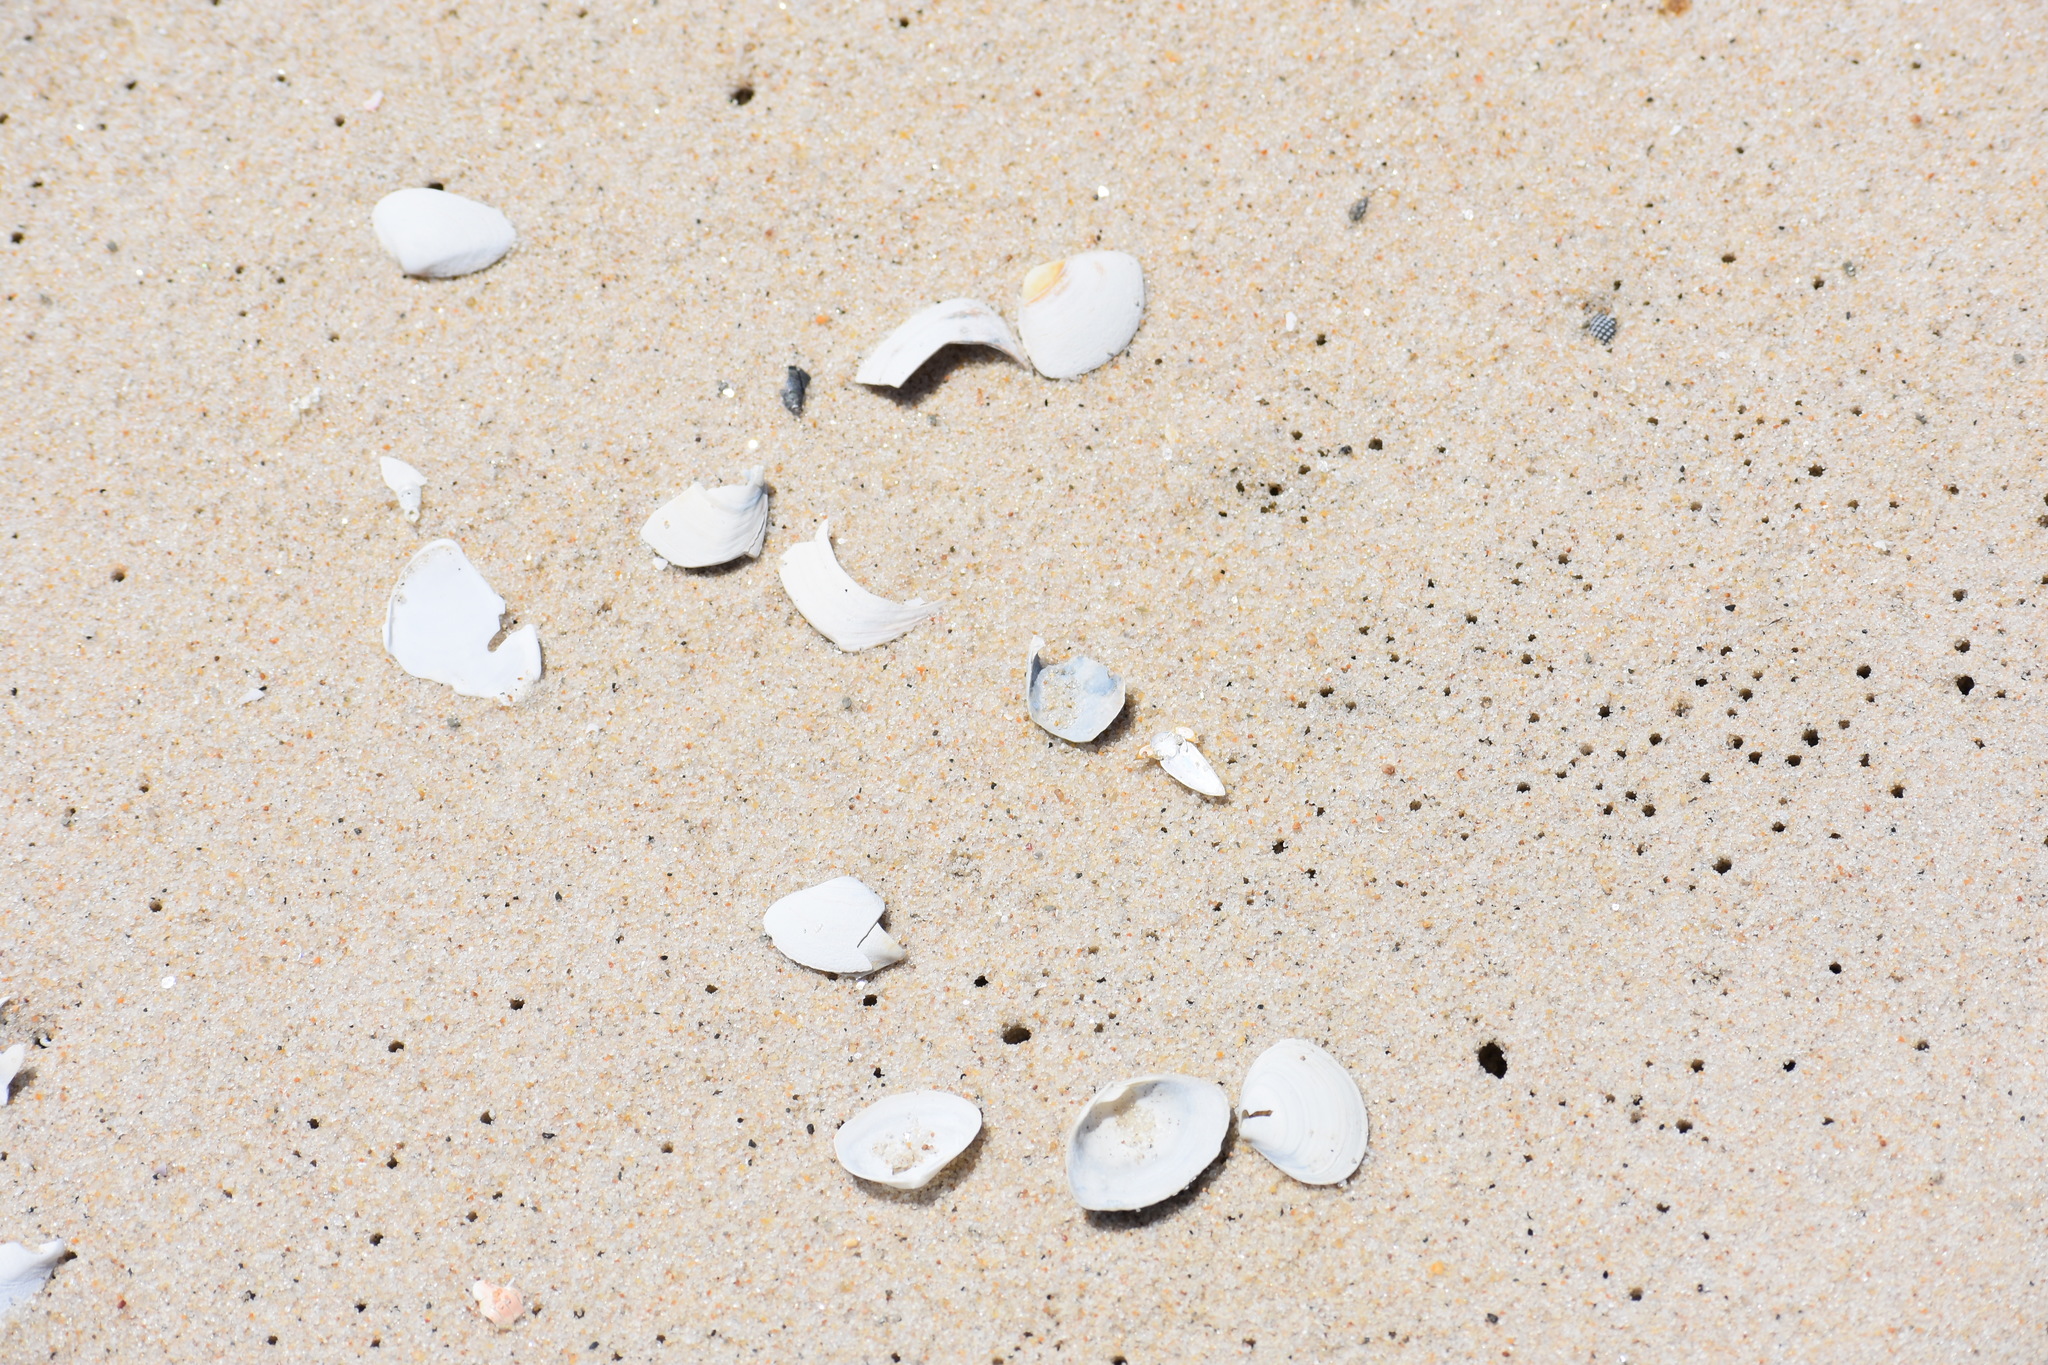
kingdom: Animalia
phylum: Mollusca
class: Bivalvia
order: Venerida
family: Mactridae
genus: Spisula
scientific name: Spisula solidissima
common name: Atlantic surf clam
